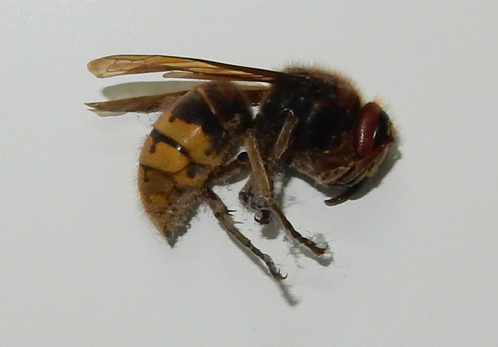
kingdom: Animalia
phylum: Arthropoda
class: Insecta
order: Hymenoptera
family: Vespidae
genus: Vespa
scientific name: Vespa crabro
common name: Hornet
